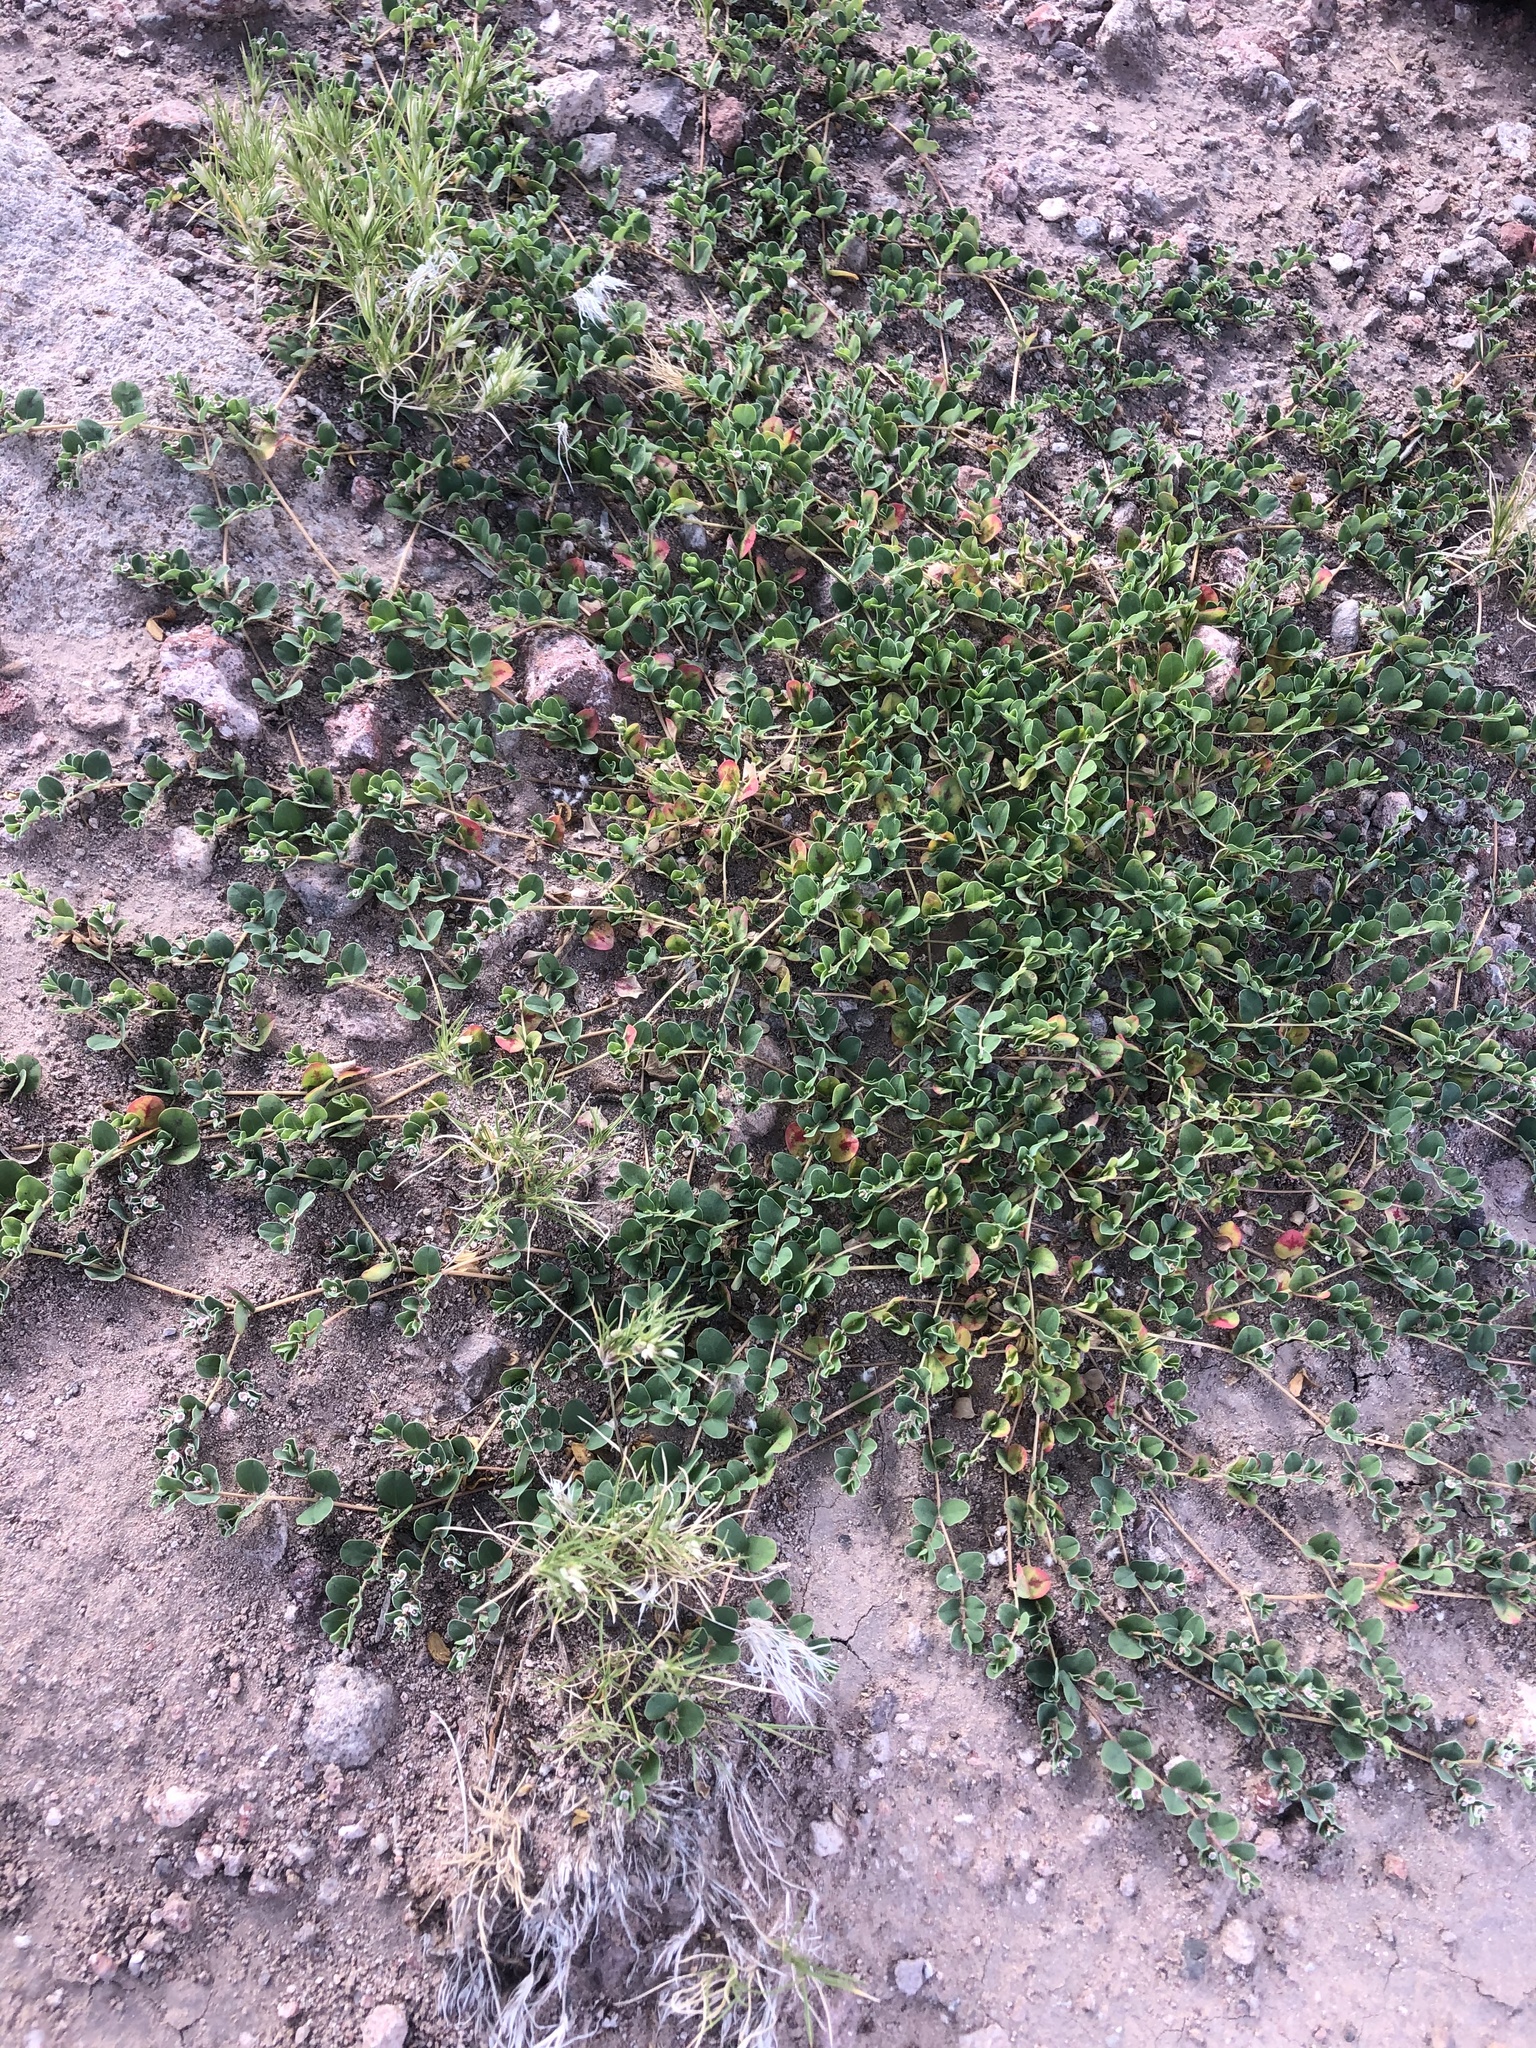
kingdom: Plantae
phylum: Tracheophyta
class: Magnoliopsida
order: Malpighiales
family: Euphorbiaceae
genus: Euphorbia
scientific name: Euphorbia albomarginata
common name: Whitemargin sandmat
